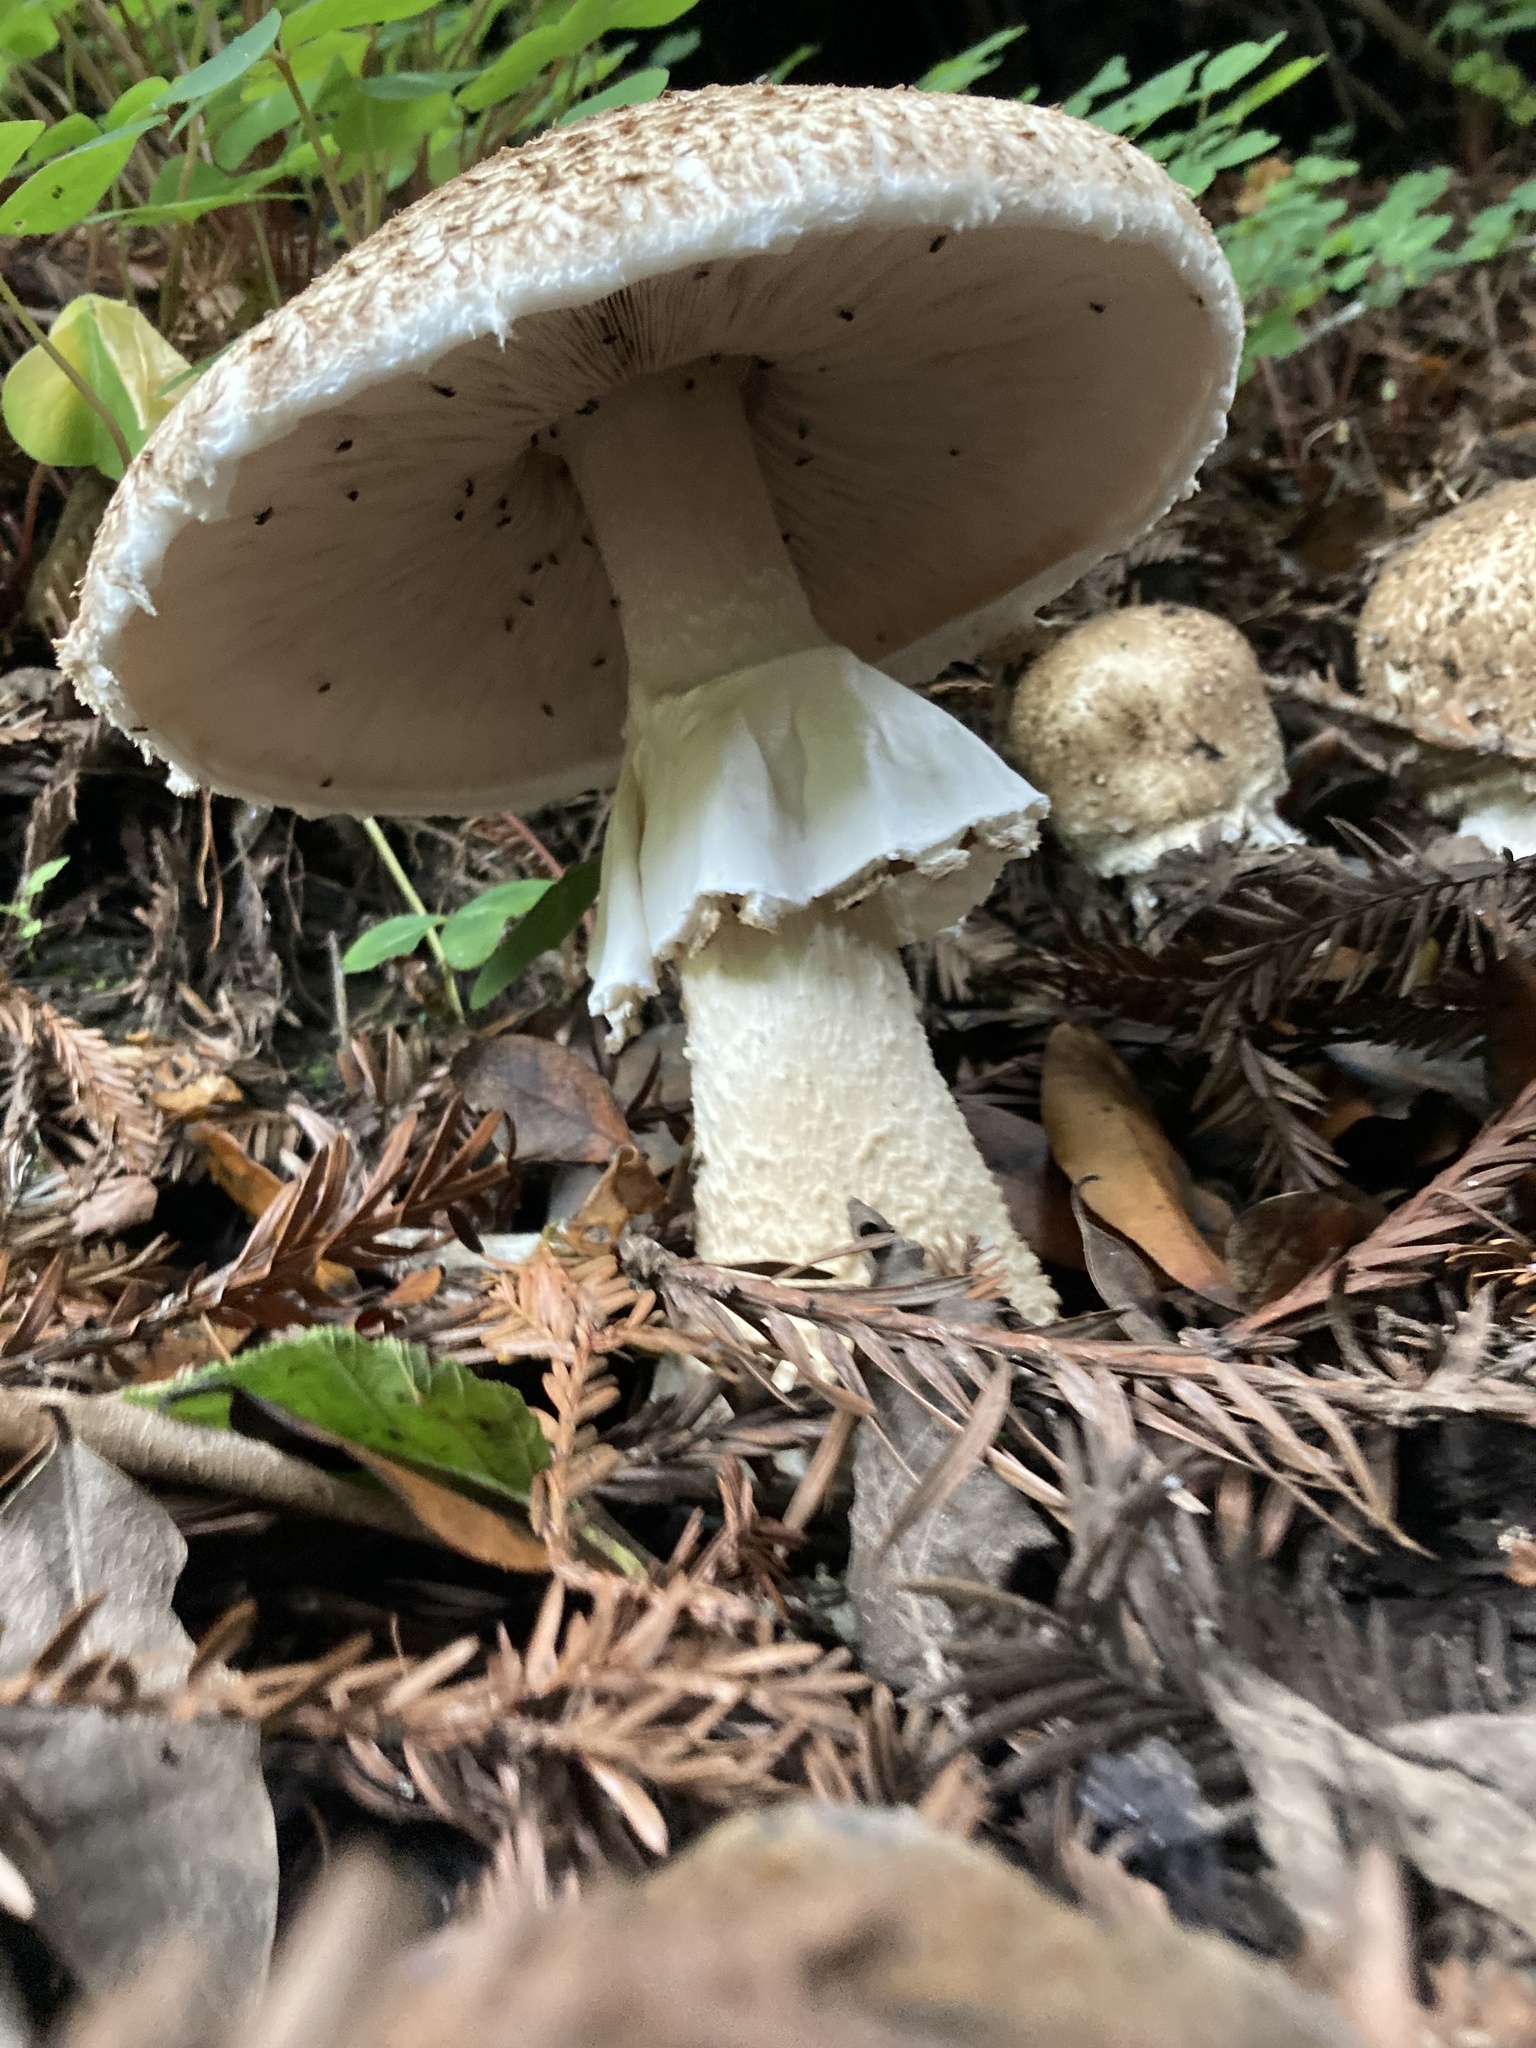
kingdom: Fungi
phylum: Basidiomycota
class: Agaricomycetes
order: Agaricales
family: Agaricaceae
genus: Agaricus
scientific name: Agaricus augustus
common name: Prince
